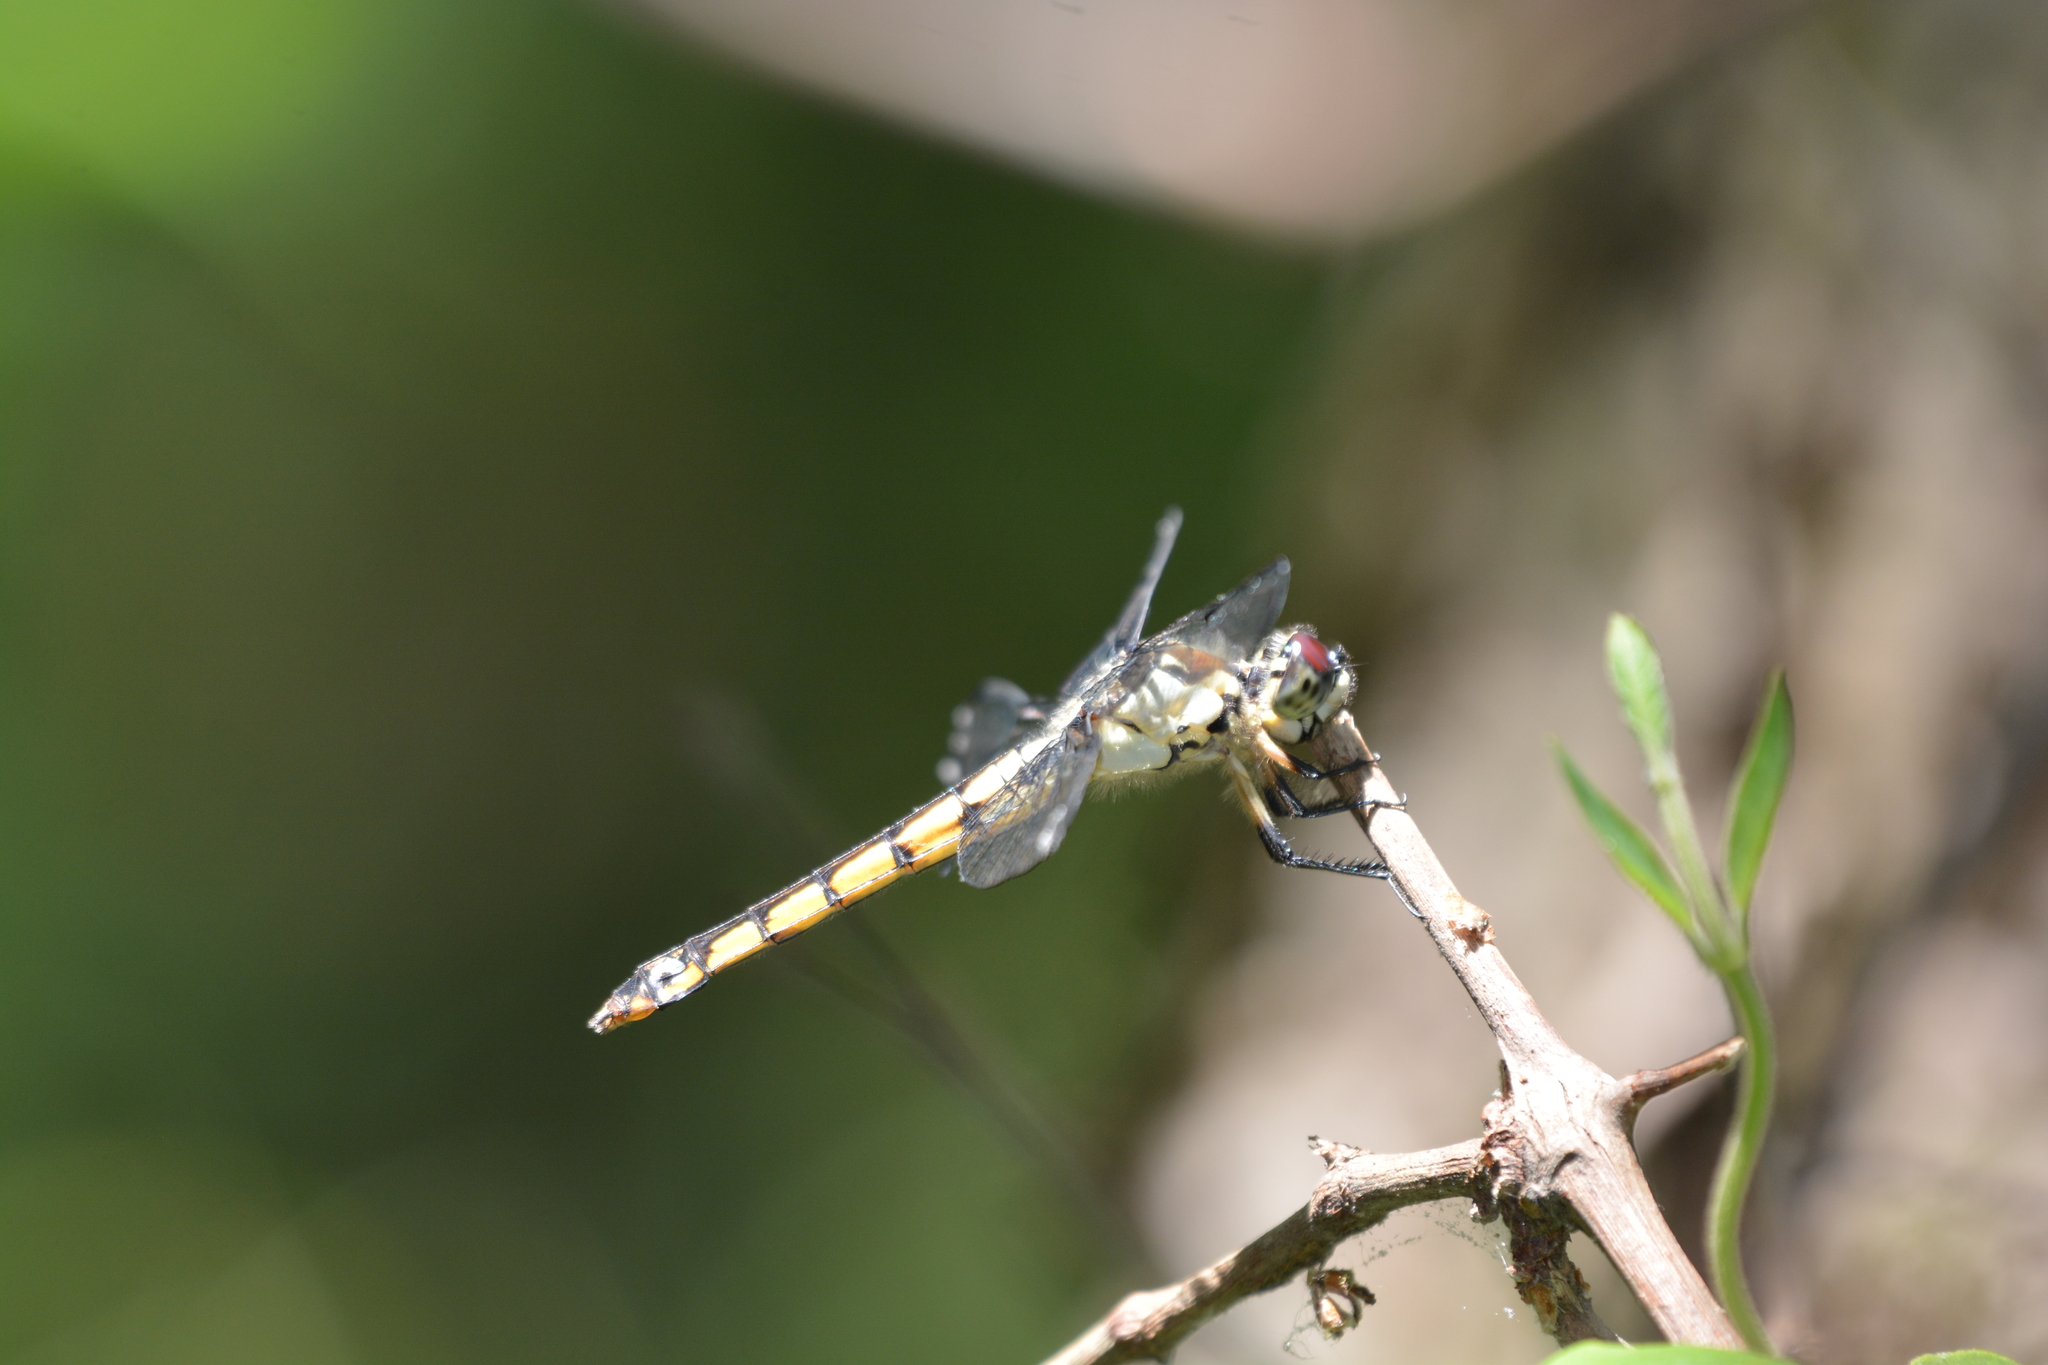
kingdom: Animalia
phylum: Arthropoda
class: Insecta
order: Odonata
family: Libellulidae
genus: Libellula
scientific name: Libellula vibrans
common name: Great blue skimmer
